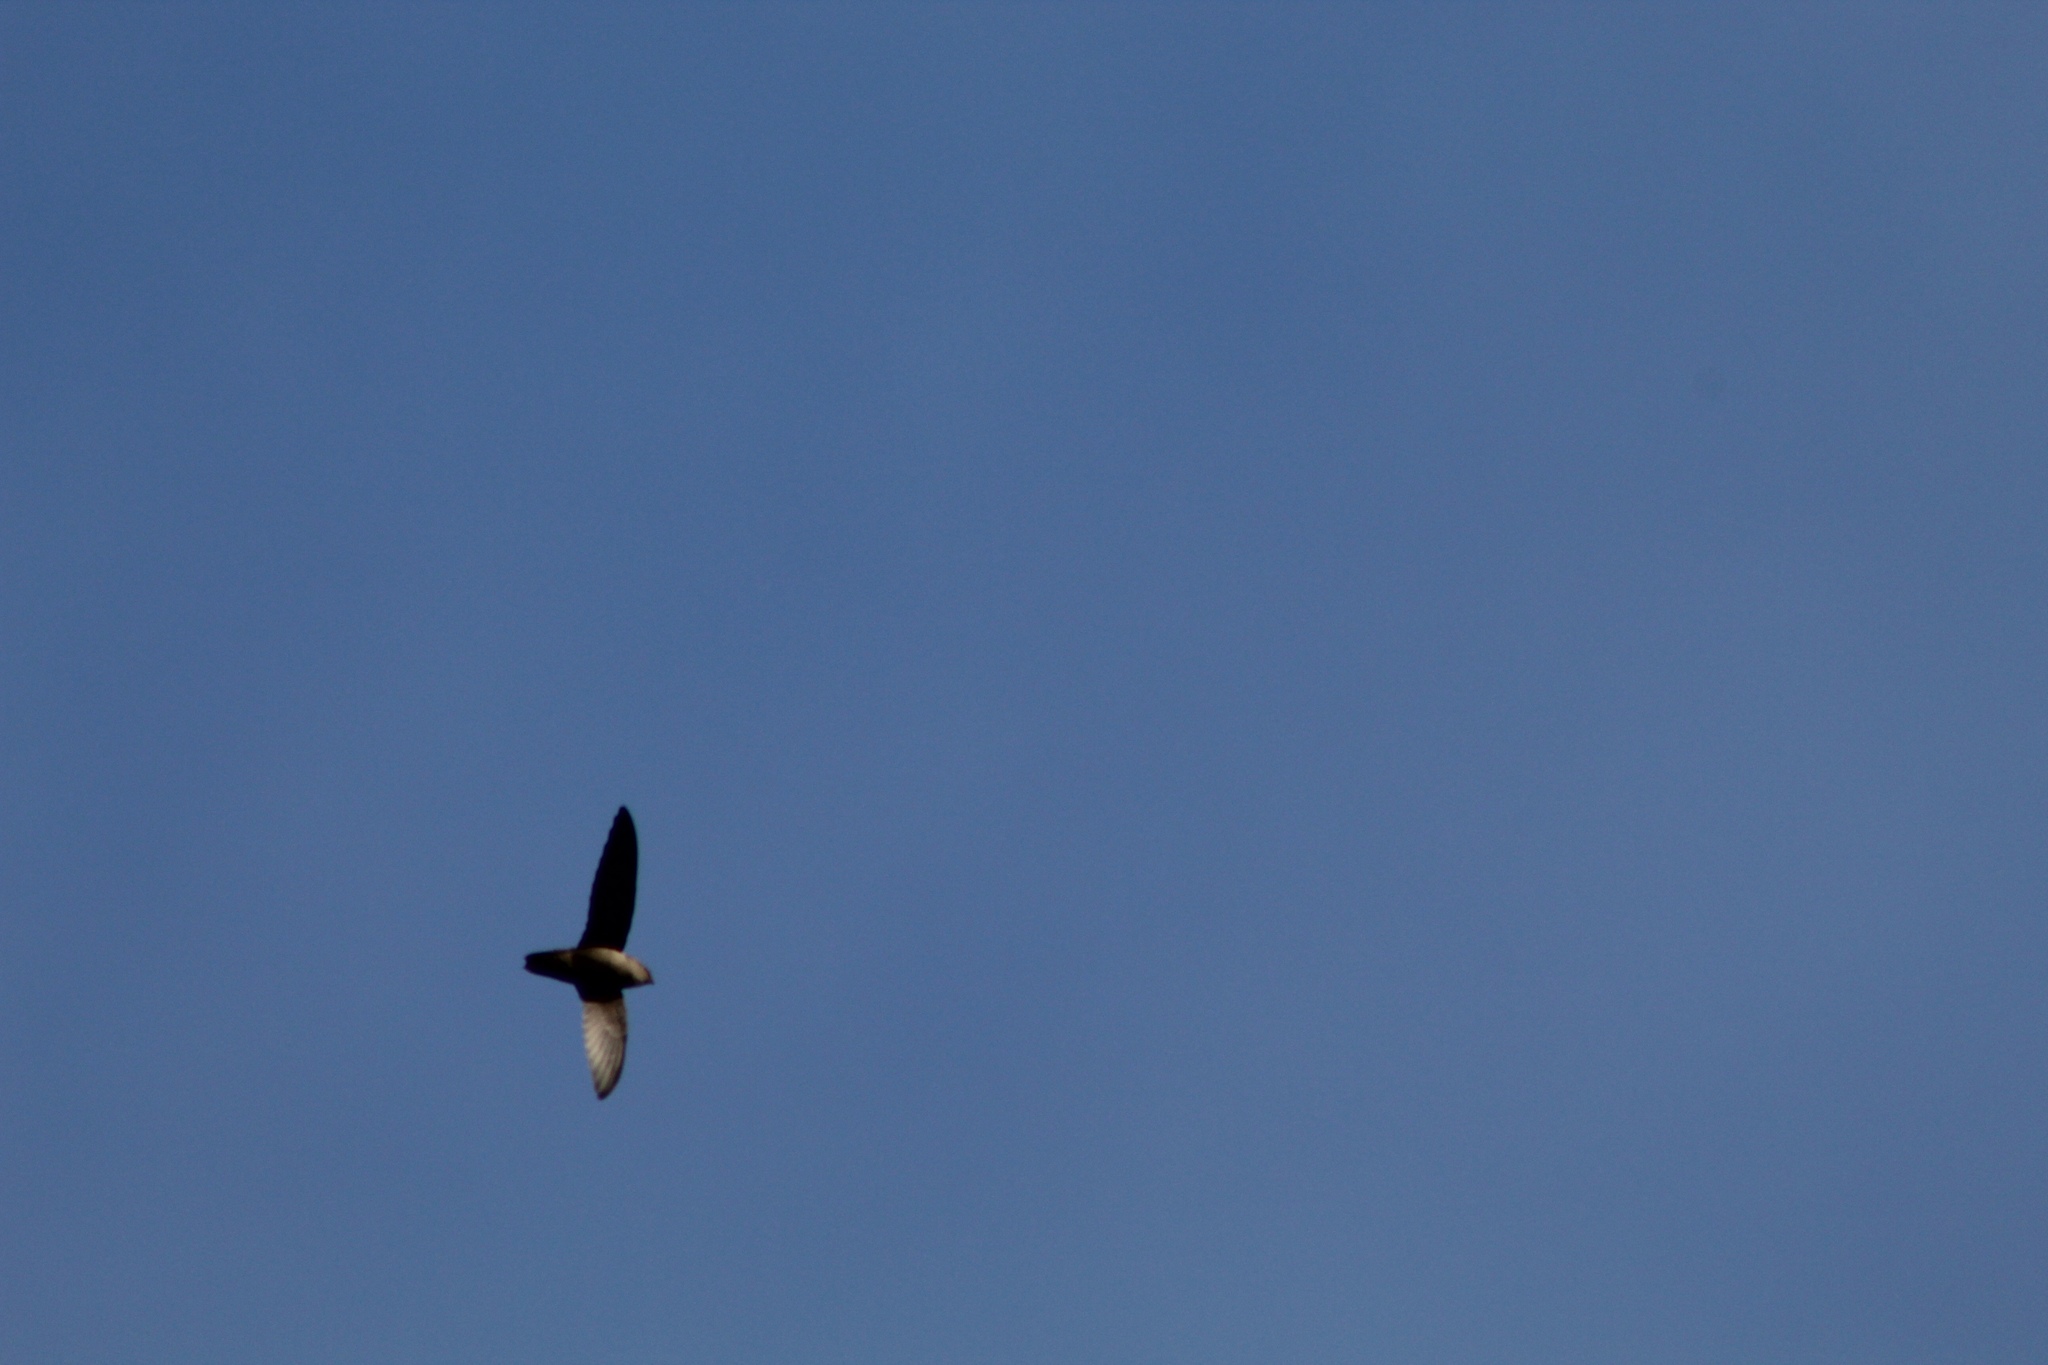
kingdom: Animalia
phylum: Chordata
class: Aves
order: Apodiformes
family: Apodidae
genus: Chaetura
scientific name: Chaetura pelagica
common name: Chimney swift
